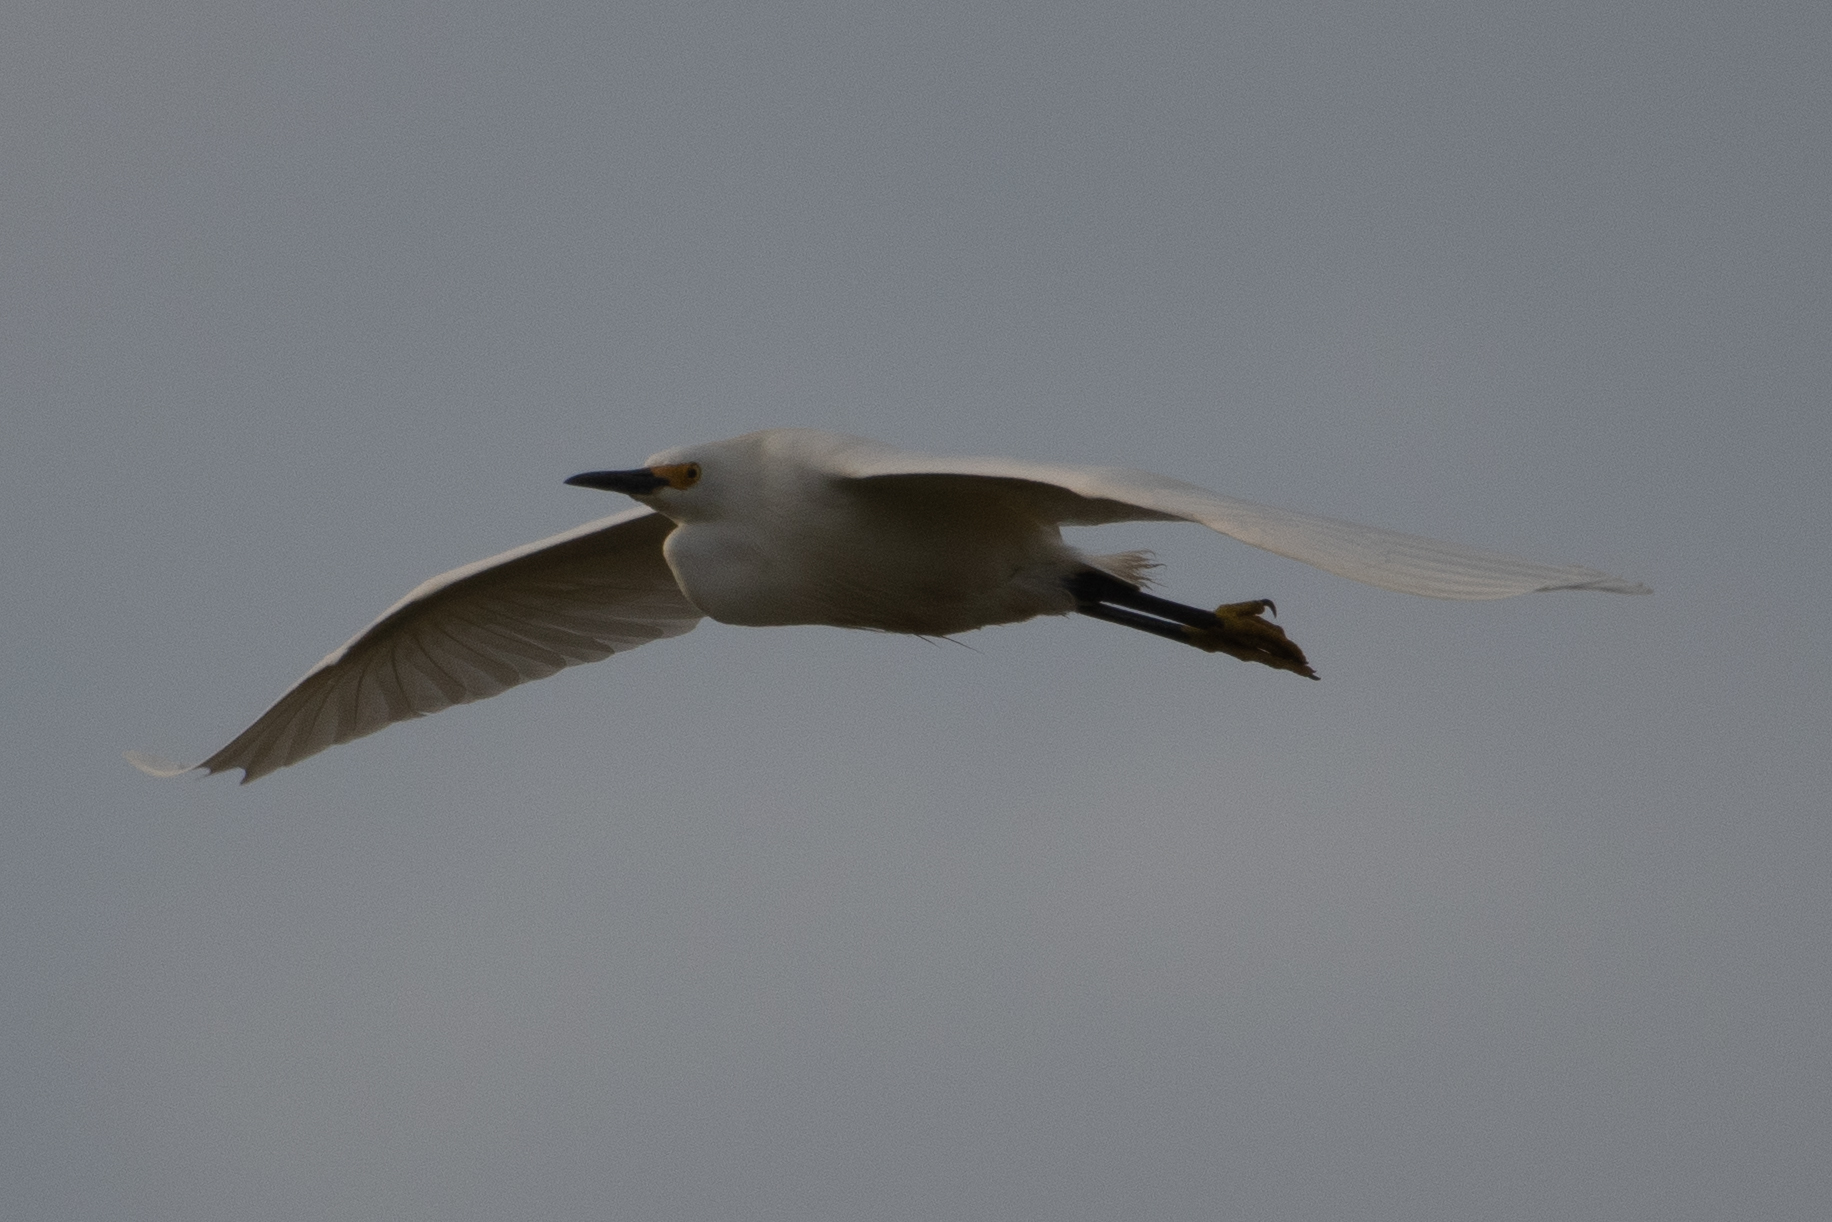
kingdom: Animalia
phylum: Chordata
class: Aves
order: Pelecaniformes
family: Ardeidae
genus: Egretta
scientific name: Egretta thula
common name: Snowy egret
